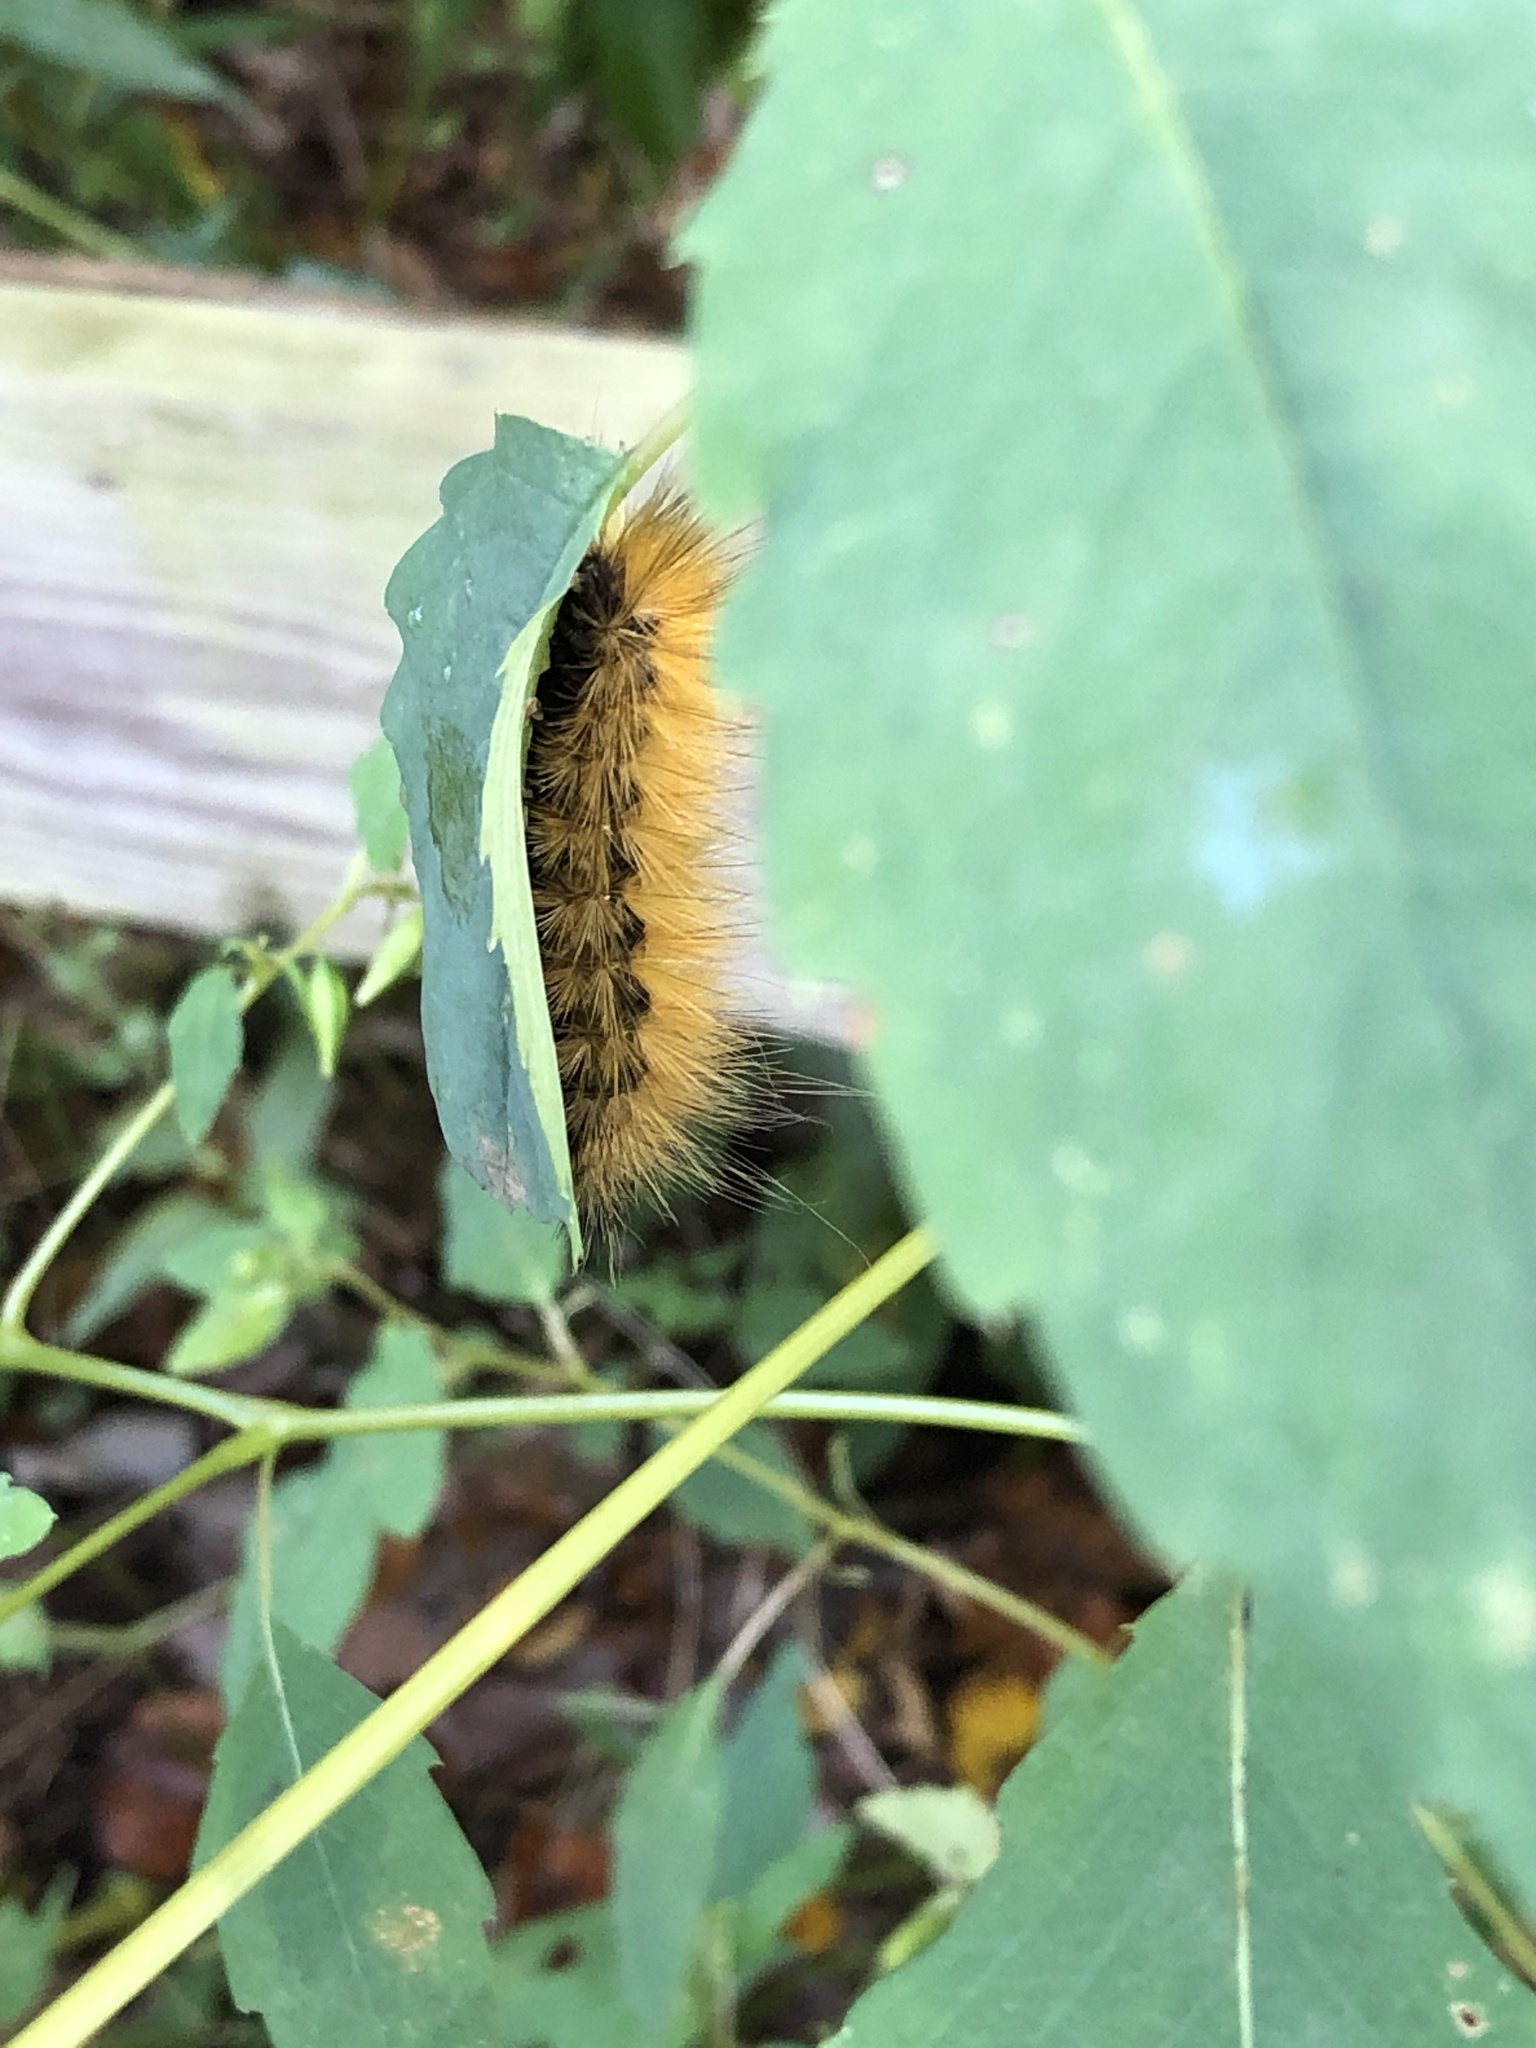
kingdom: Animalia
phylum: Arthropoda
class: Insecta
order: Lepidoptera
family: Erebidae
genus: Spilosoma
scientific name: Spilosoma virginica
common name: Virginia tiger moth
